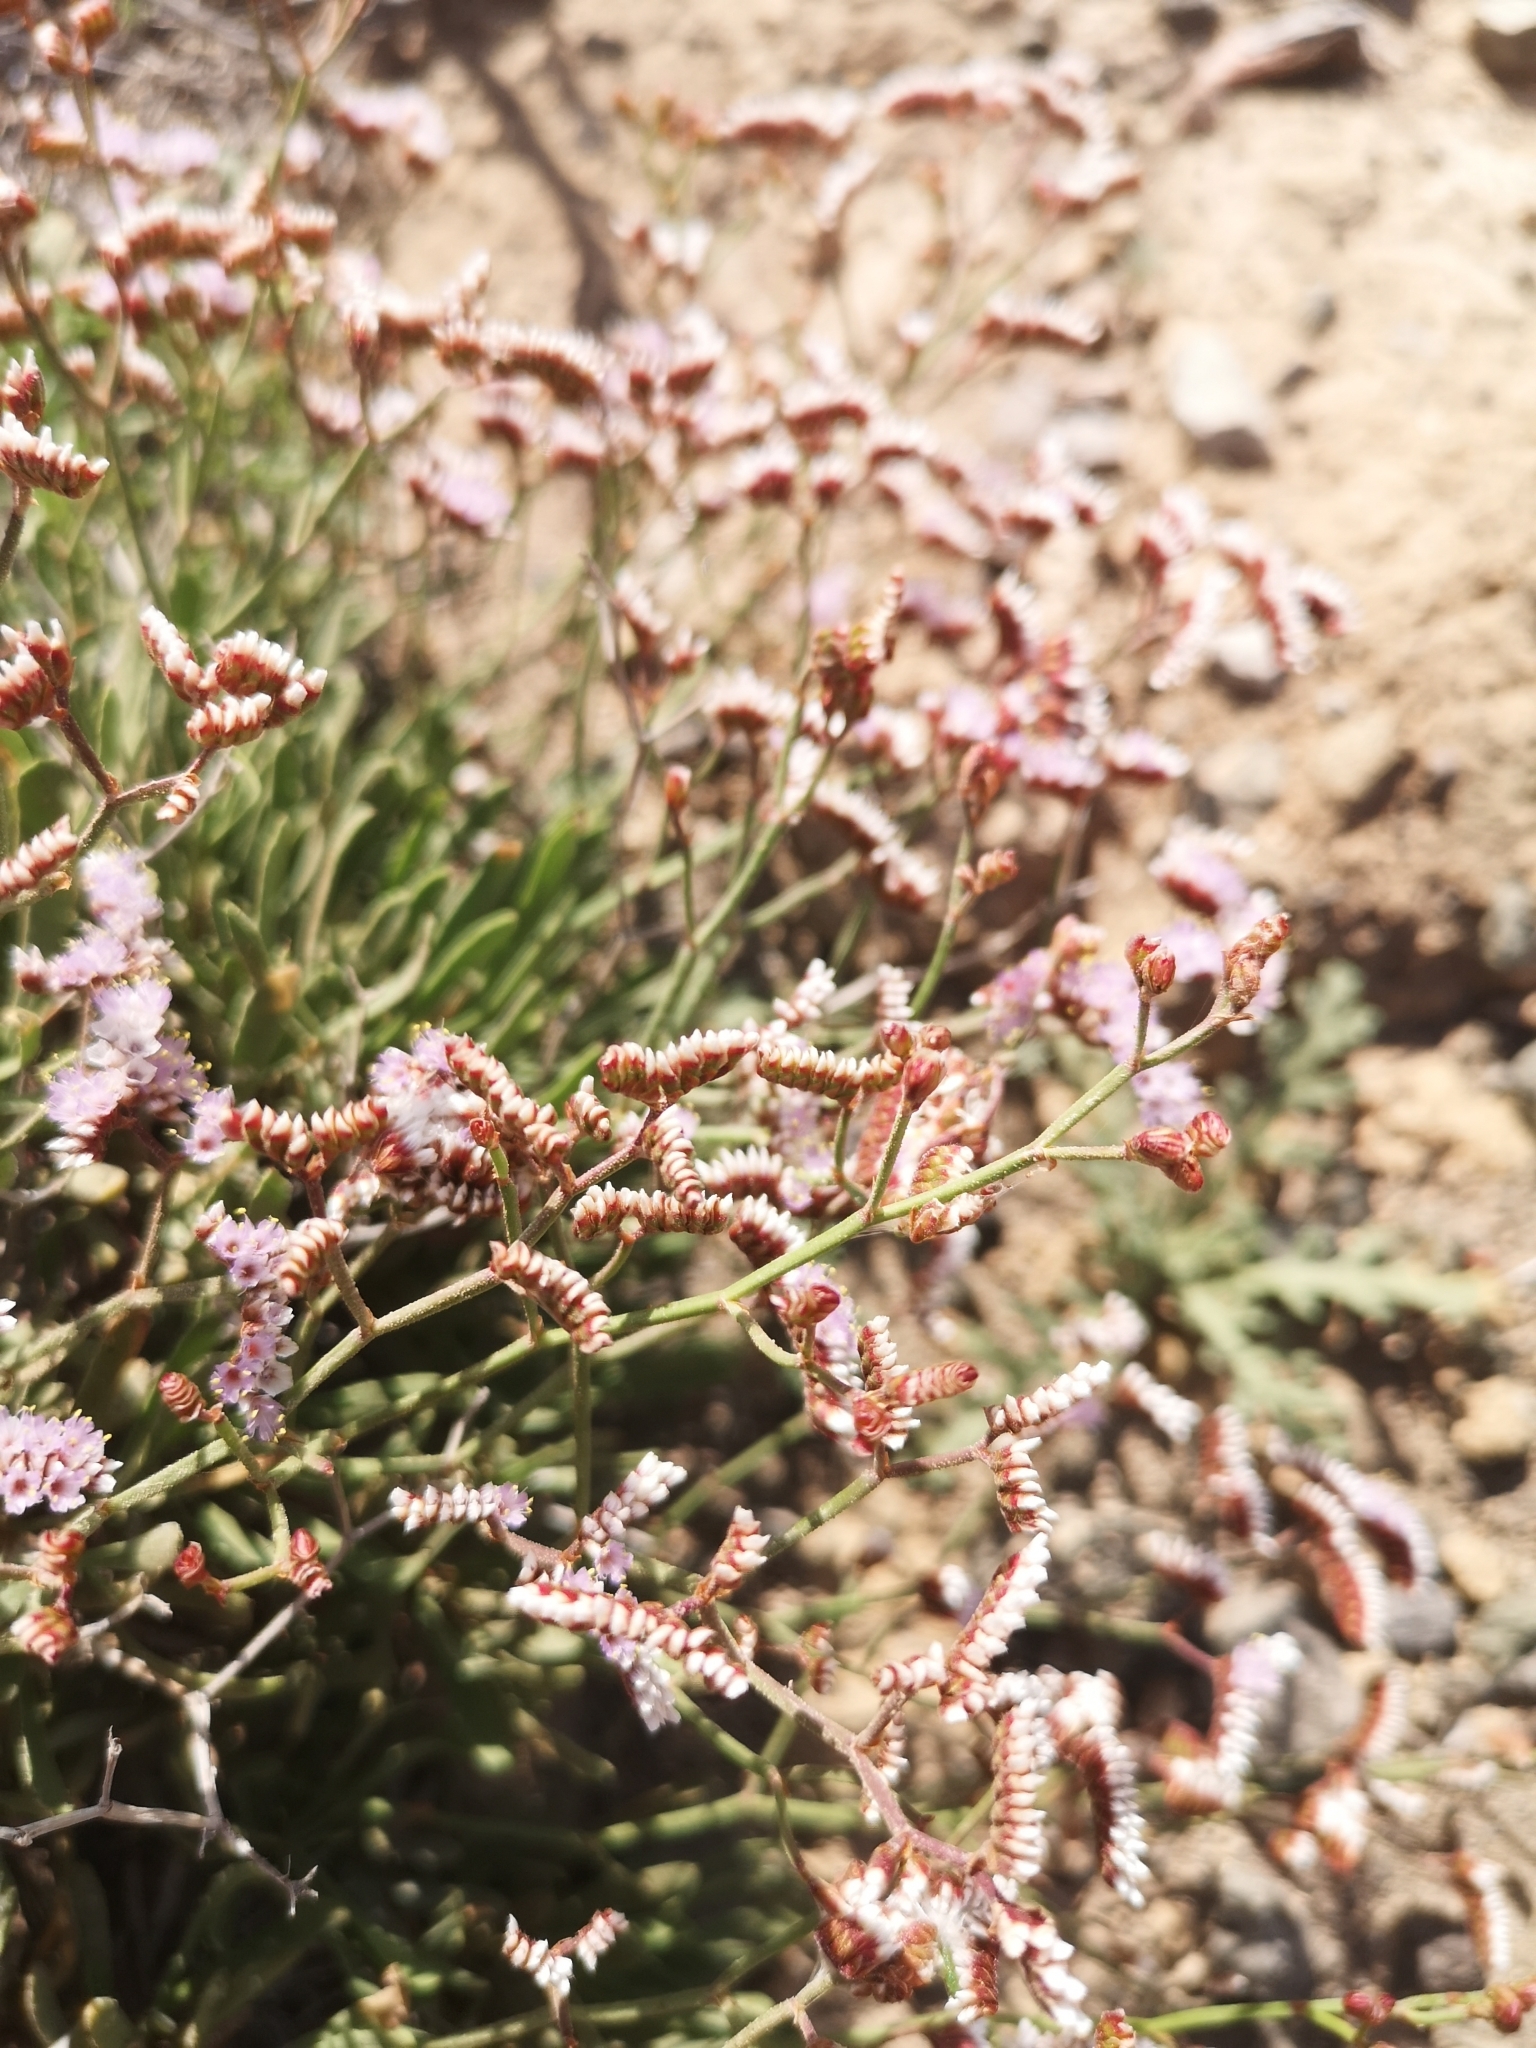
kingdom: Plantae
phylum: Tracheophyta
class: Magnoliopsida
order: Caryophyllales
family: Plumbaginaceae
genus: Limonium
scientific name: Limonium pectinatum
